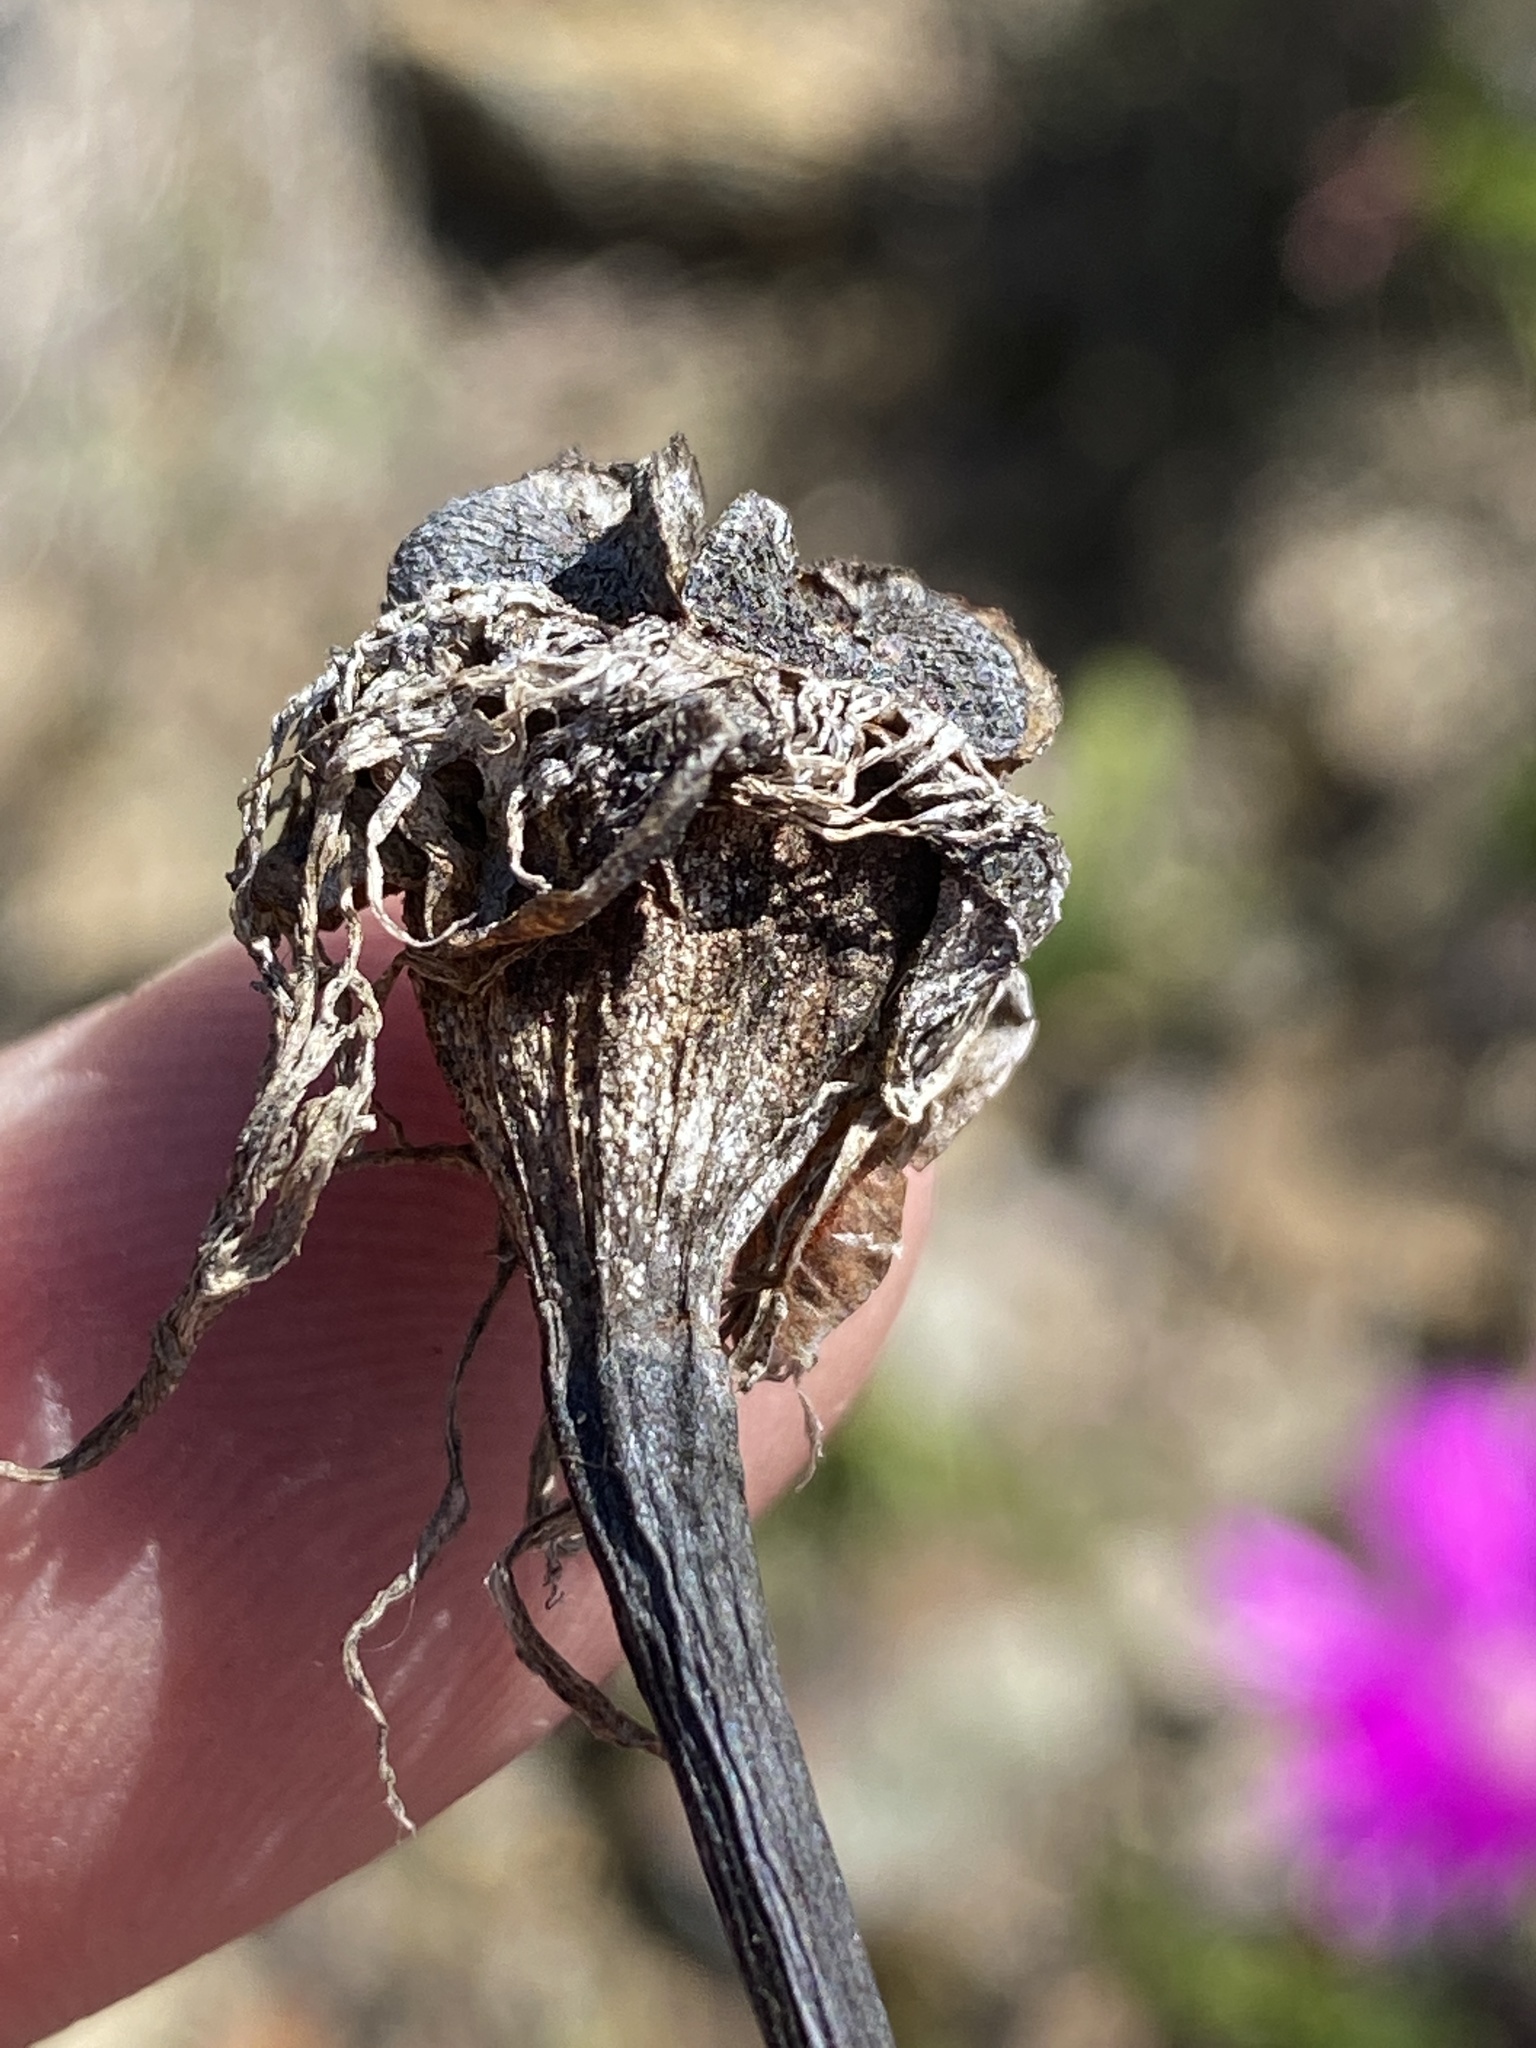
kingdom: Plantae
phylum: Tracheophyta
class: Magnoliopsida
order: Caryophyllales
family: Aizoaceae
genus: Lampranthus
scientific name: Lampranthus haworthii
